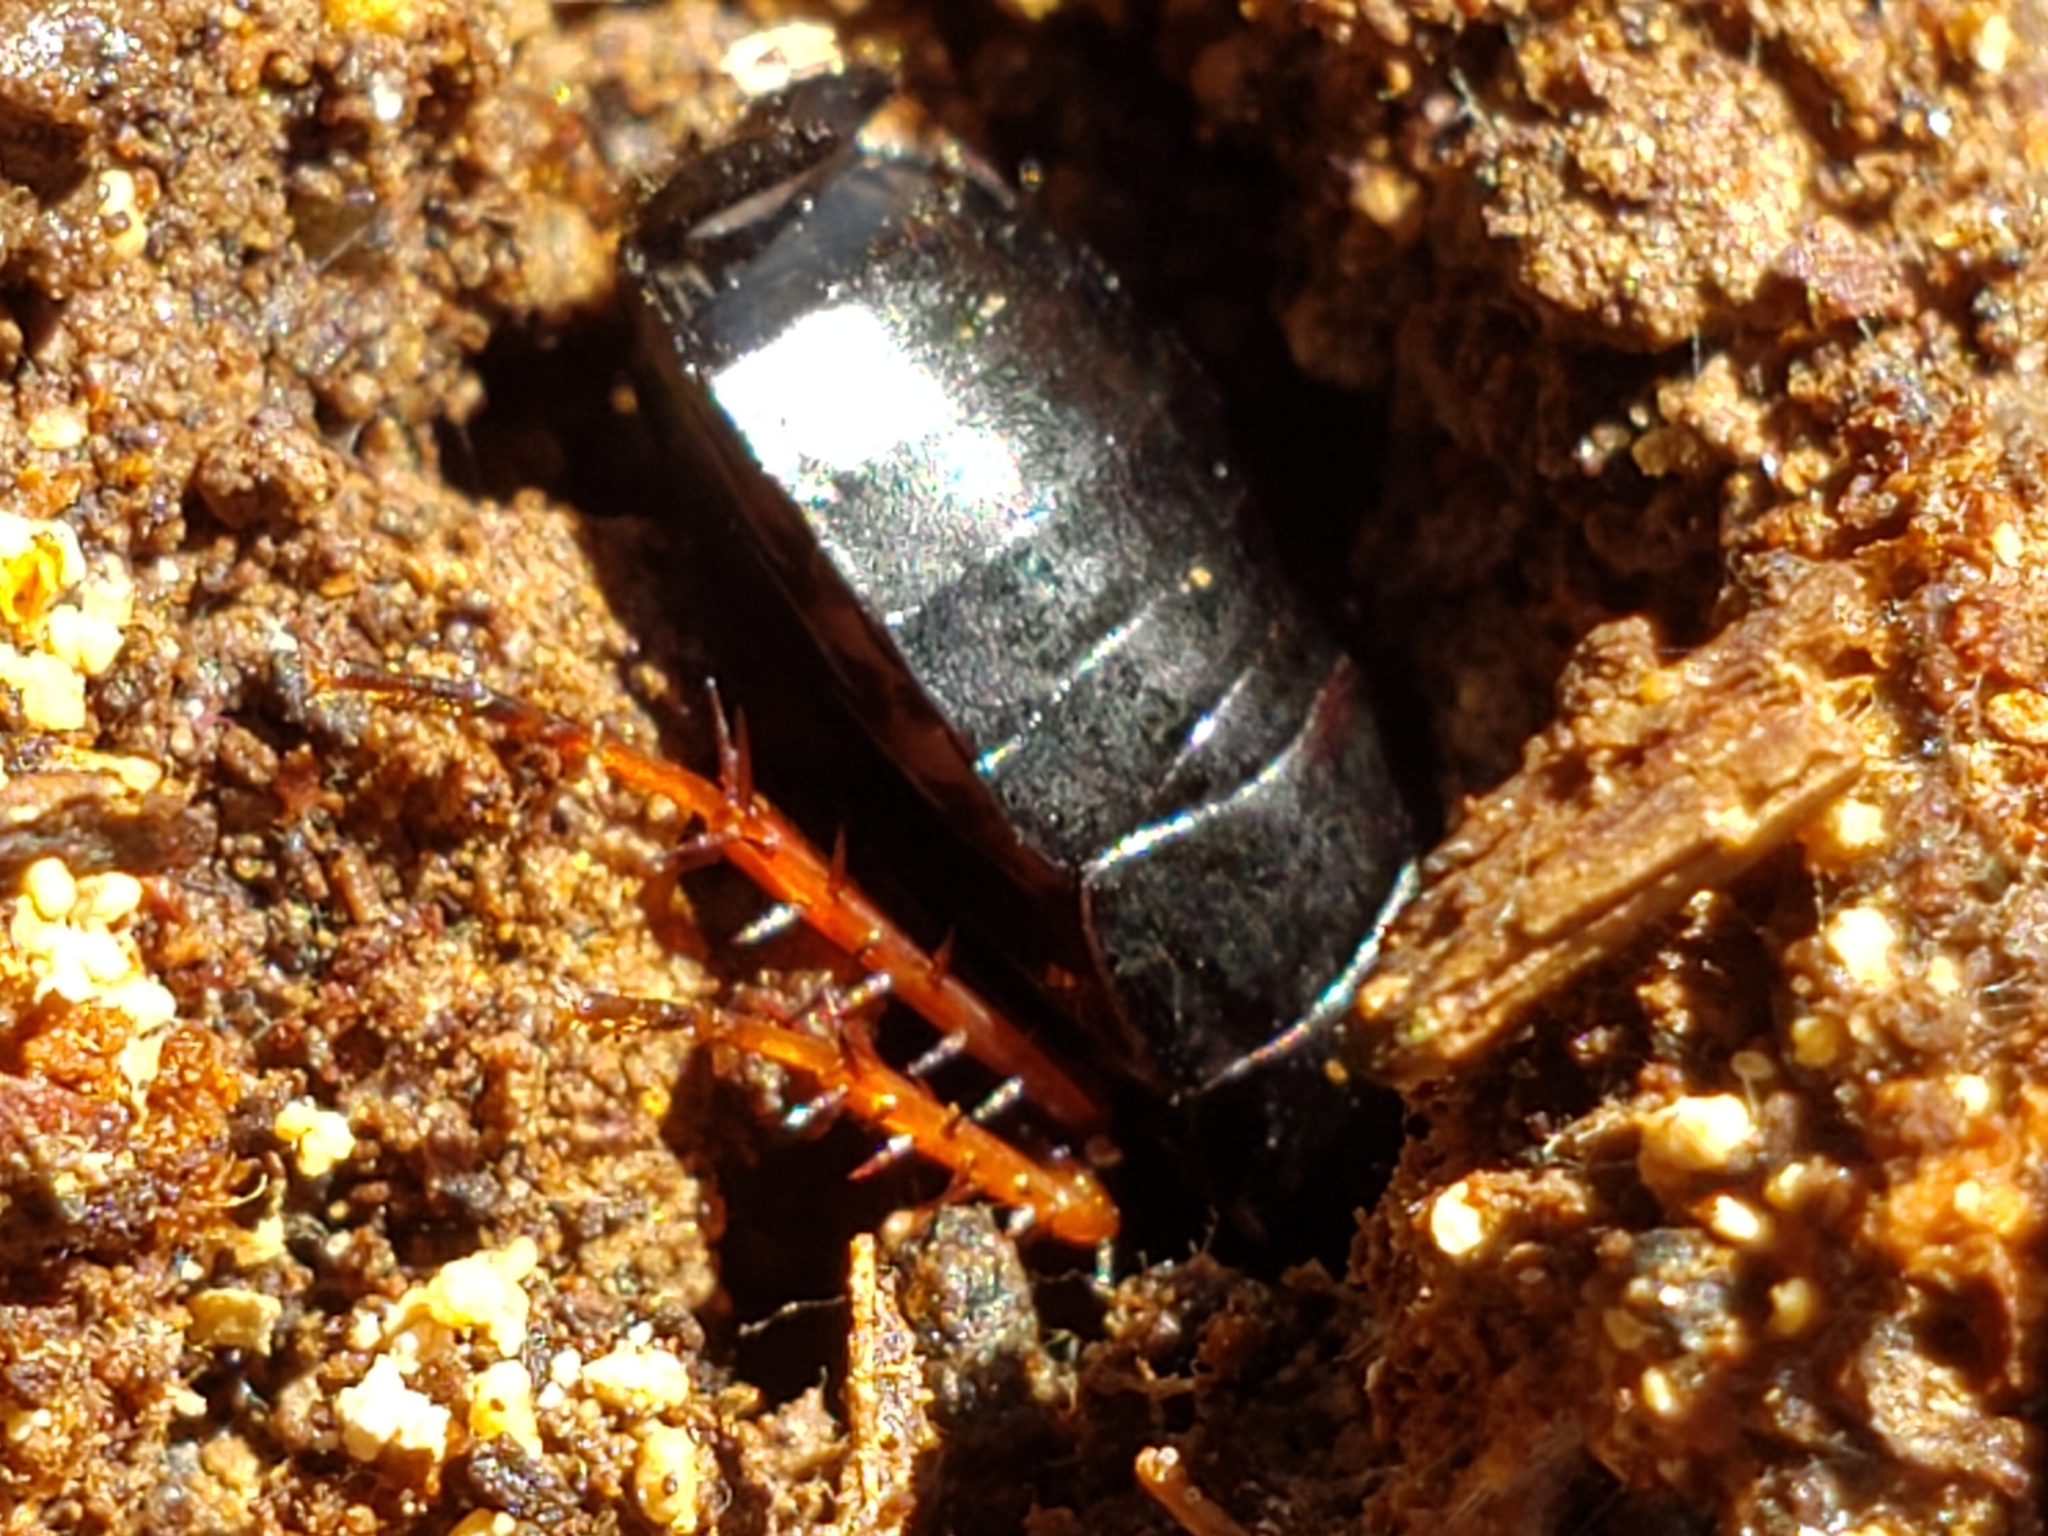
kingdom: Animalia
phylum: Arthropoda
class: Insecta
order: Blattodea
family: Ectobiidae
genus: Ischnoptera
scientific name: Ischnoptera deropeltiformis
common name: Dark wood cockroach
